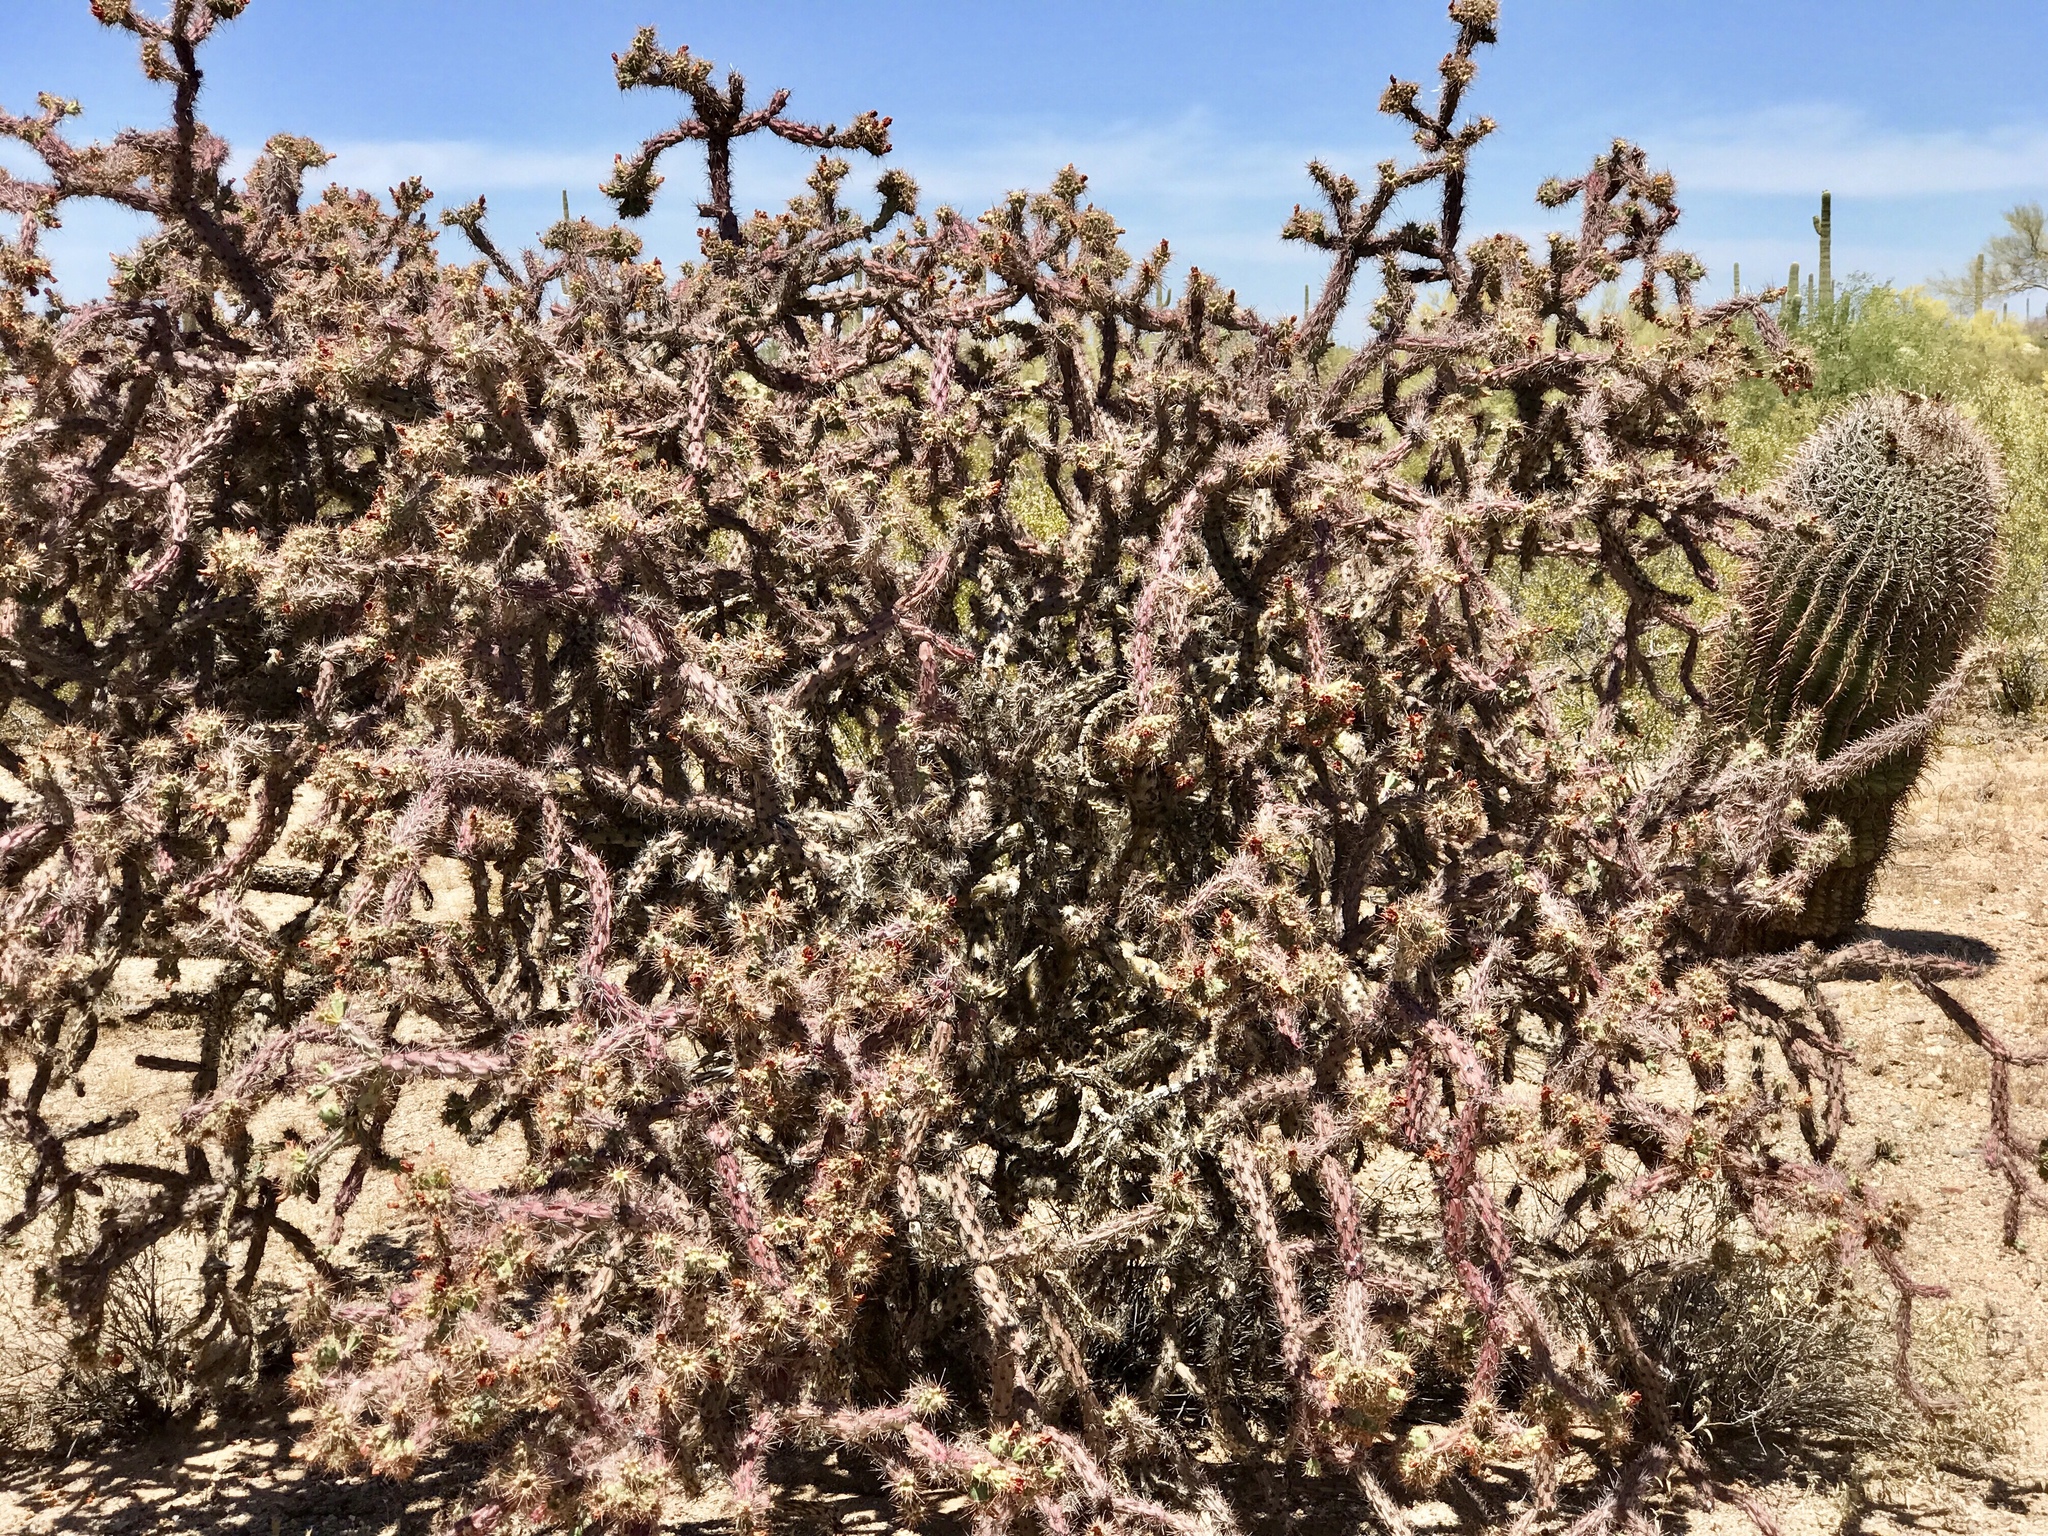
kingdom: Plantae
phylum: Tracheophyta
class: Magnoliopsida
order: Caryophyllales
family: Cactaceae
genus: Cylindropuntia
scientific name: Cylindropuntia thurberi
